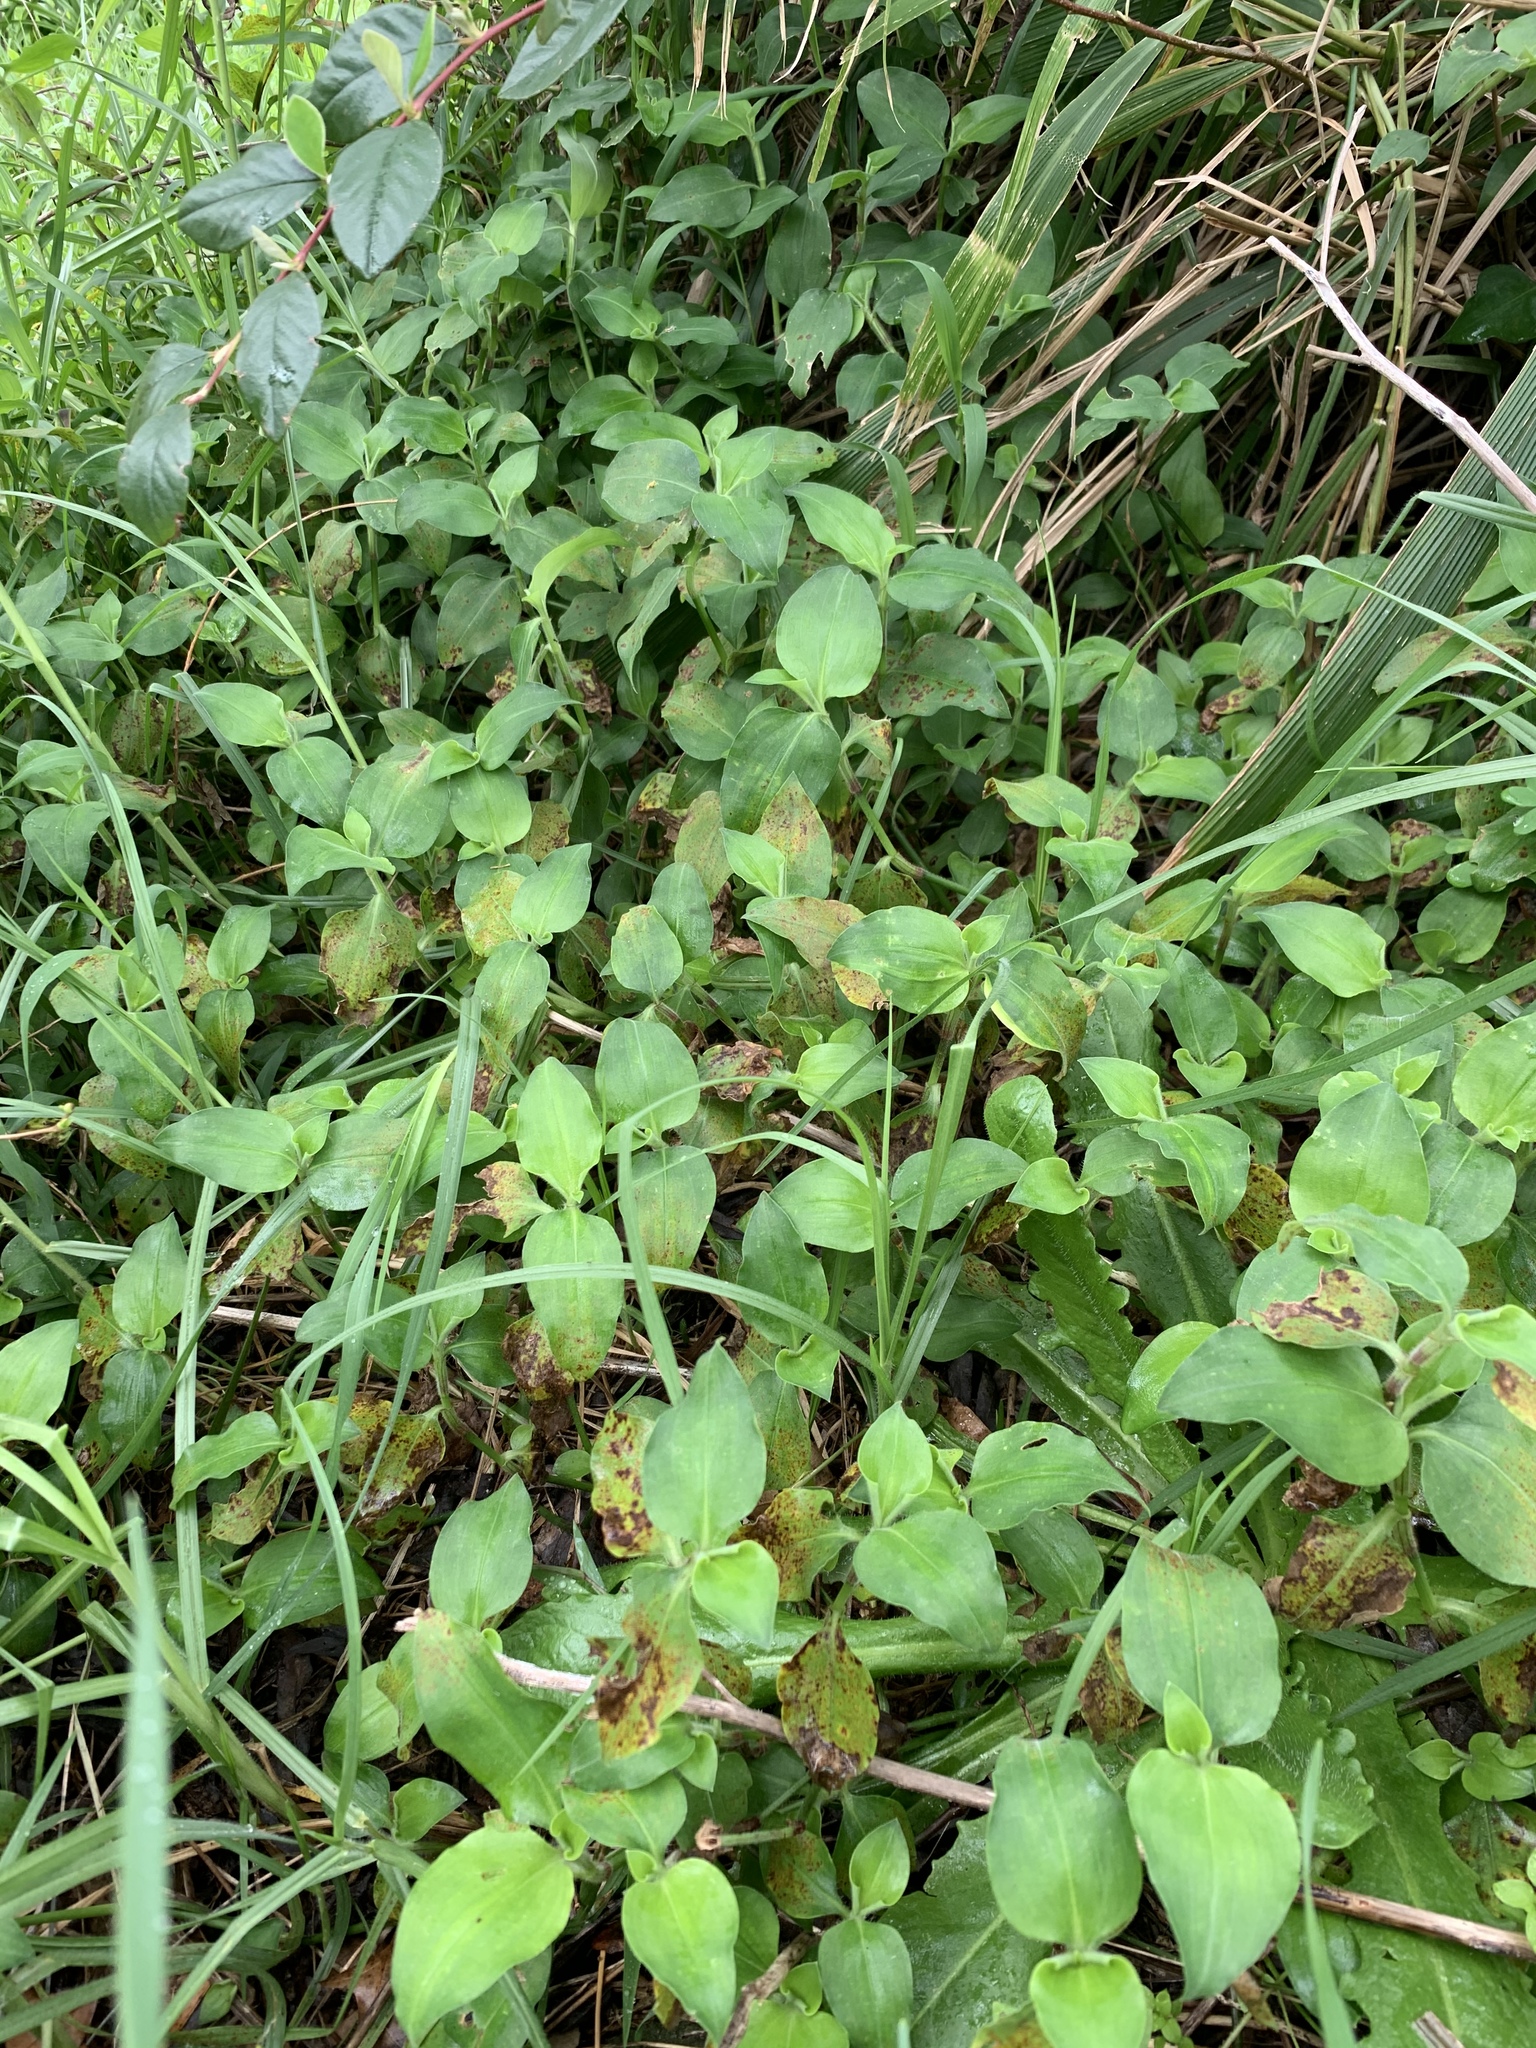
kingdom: Plantae
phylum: Tracheophyta
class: Liliopsida
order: Commelinales
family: Commelinaceae
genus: Commelina
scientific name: Commelina benghalensis
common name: Jio
